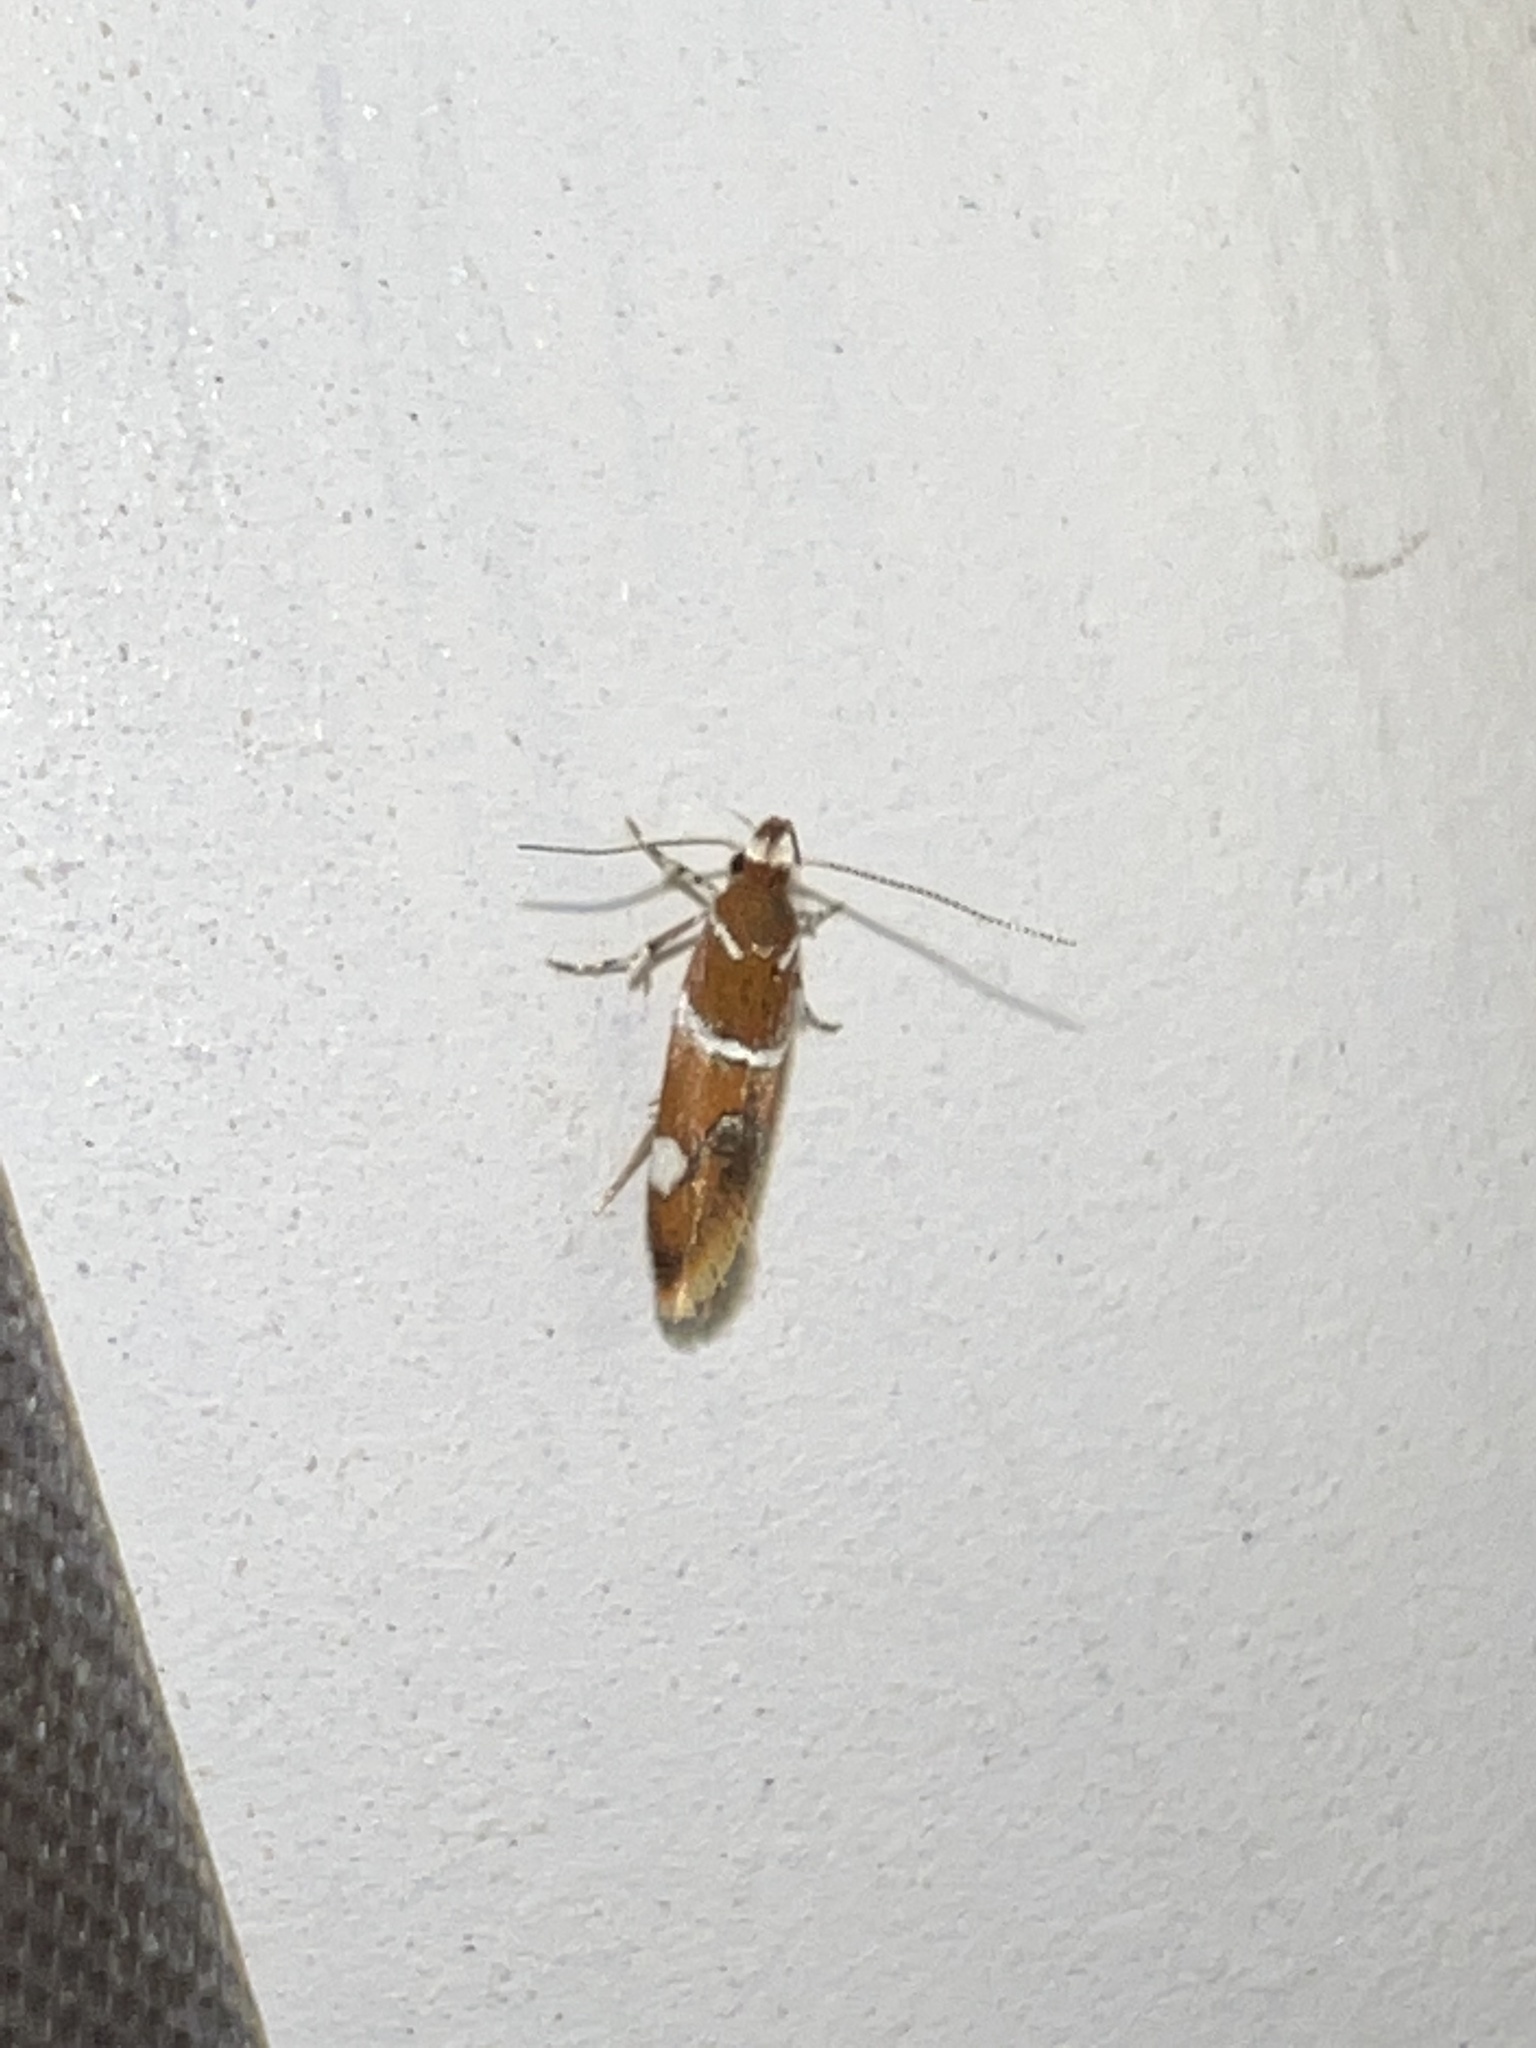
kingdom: Animalia
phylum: Arthropoda
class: Insecta
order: Lepidoptera
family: Oecophoridae
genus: Promalactis
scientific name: Promalactis suzukiella
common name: Moth
